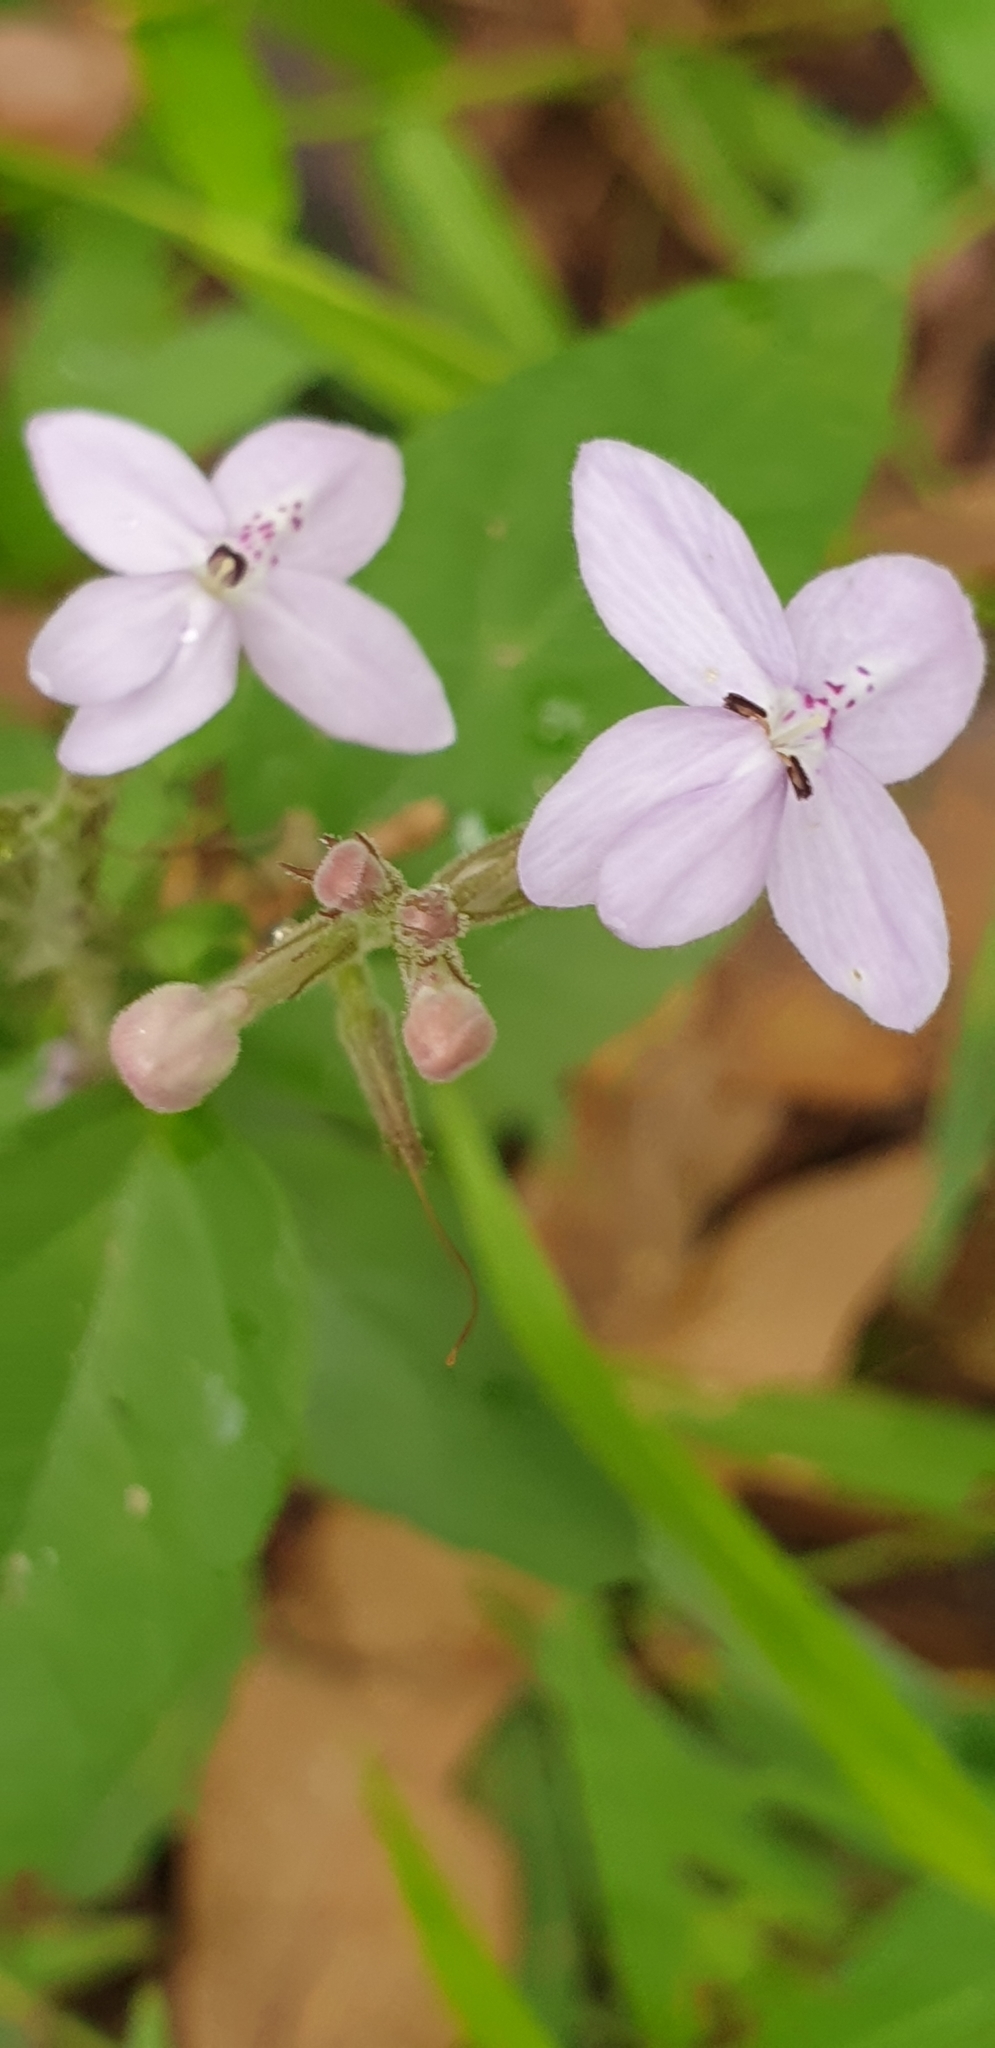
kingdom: Plantae
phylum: Tracheophyta
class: Magnoliopsida
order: Lamiales
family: Acanthaceae
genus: Pseuderanthemum
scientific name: Pseuderanthemum variabile
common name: Night and afternoon
